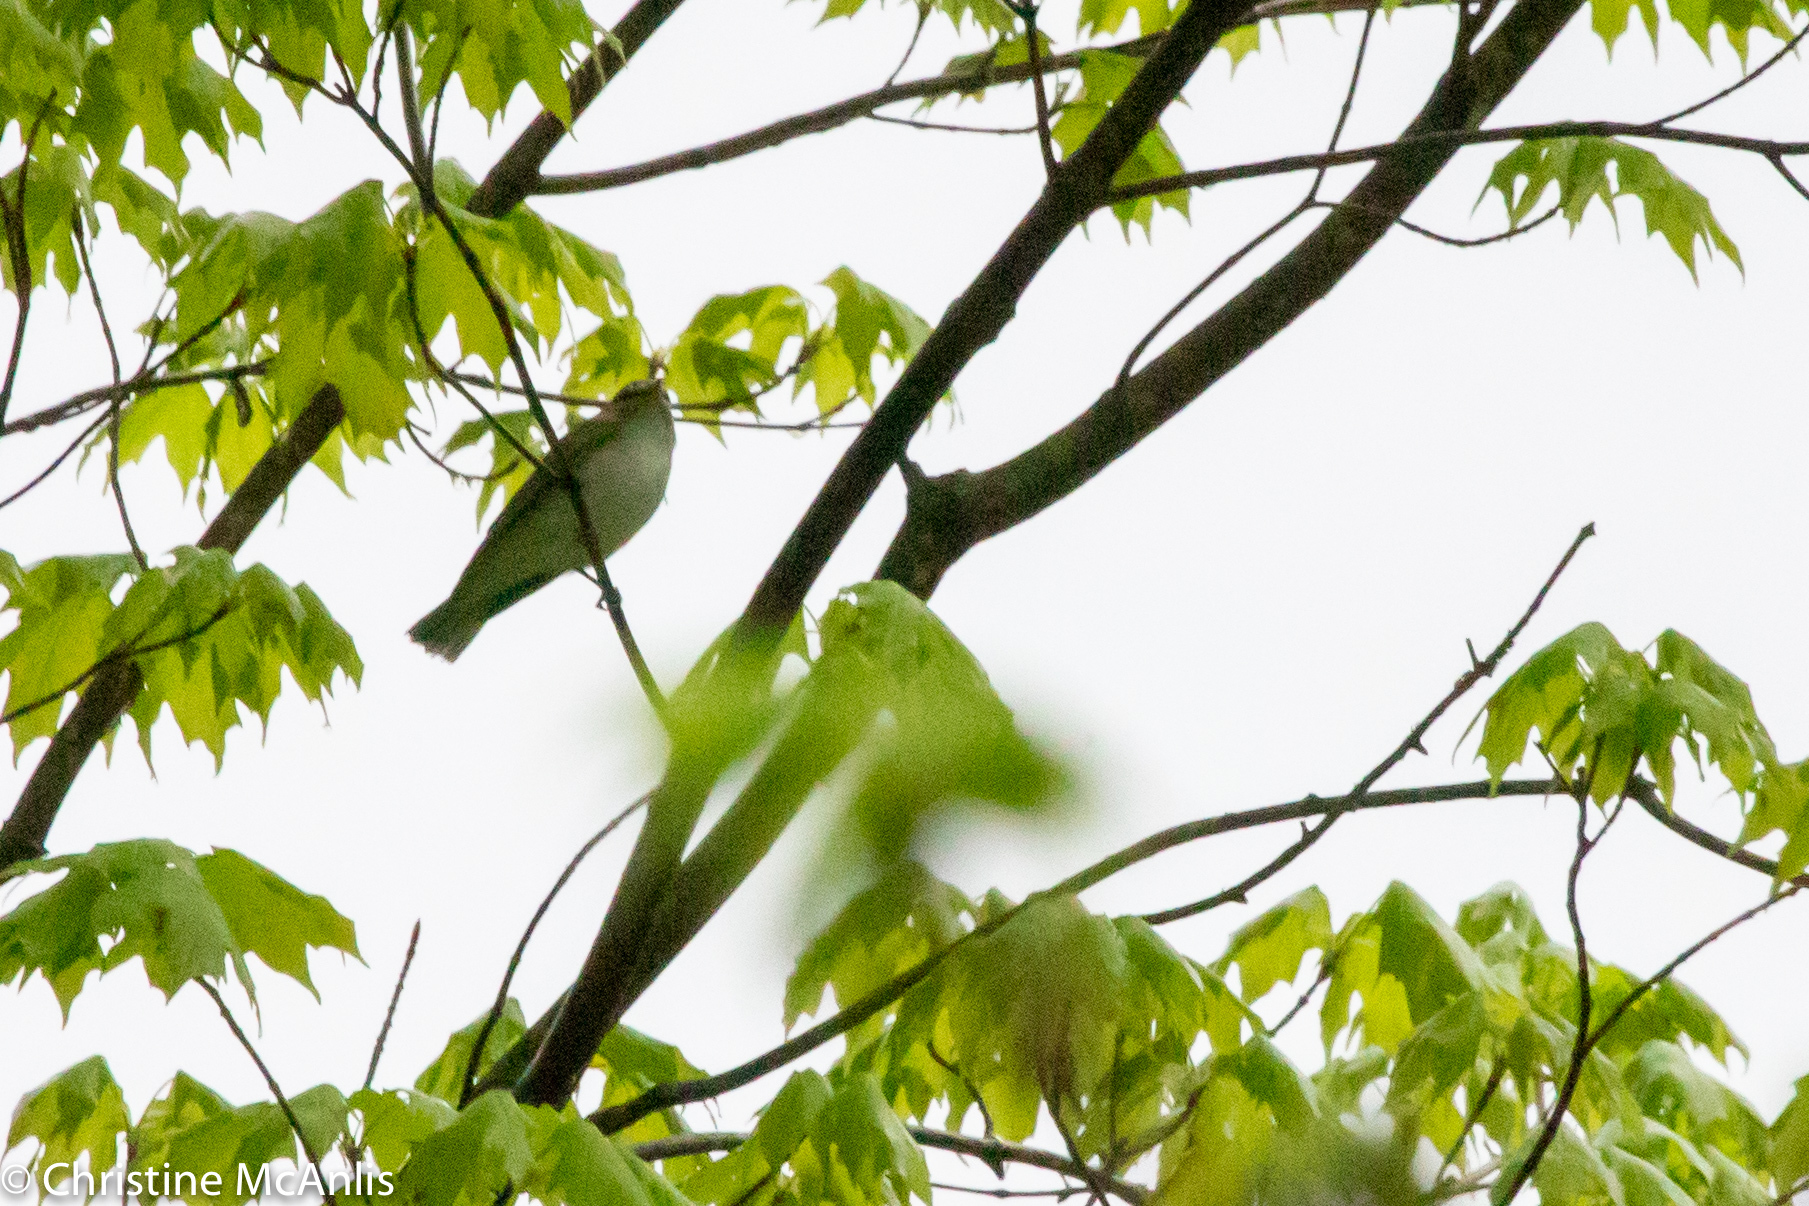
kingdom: Animalia
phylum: Chordata
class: Aves
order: Passeriformes
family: Vireonidae
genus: Vireo
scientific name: Vireo olivaceus
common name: Red-eyed vireo
